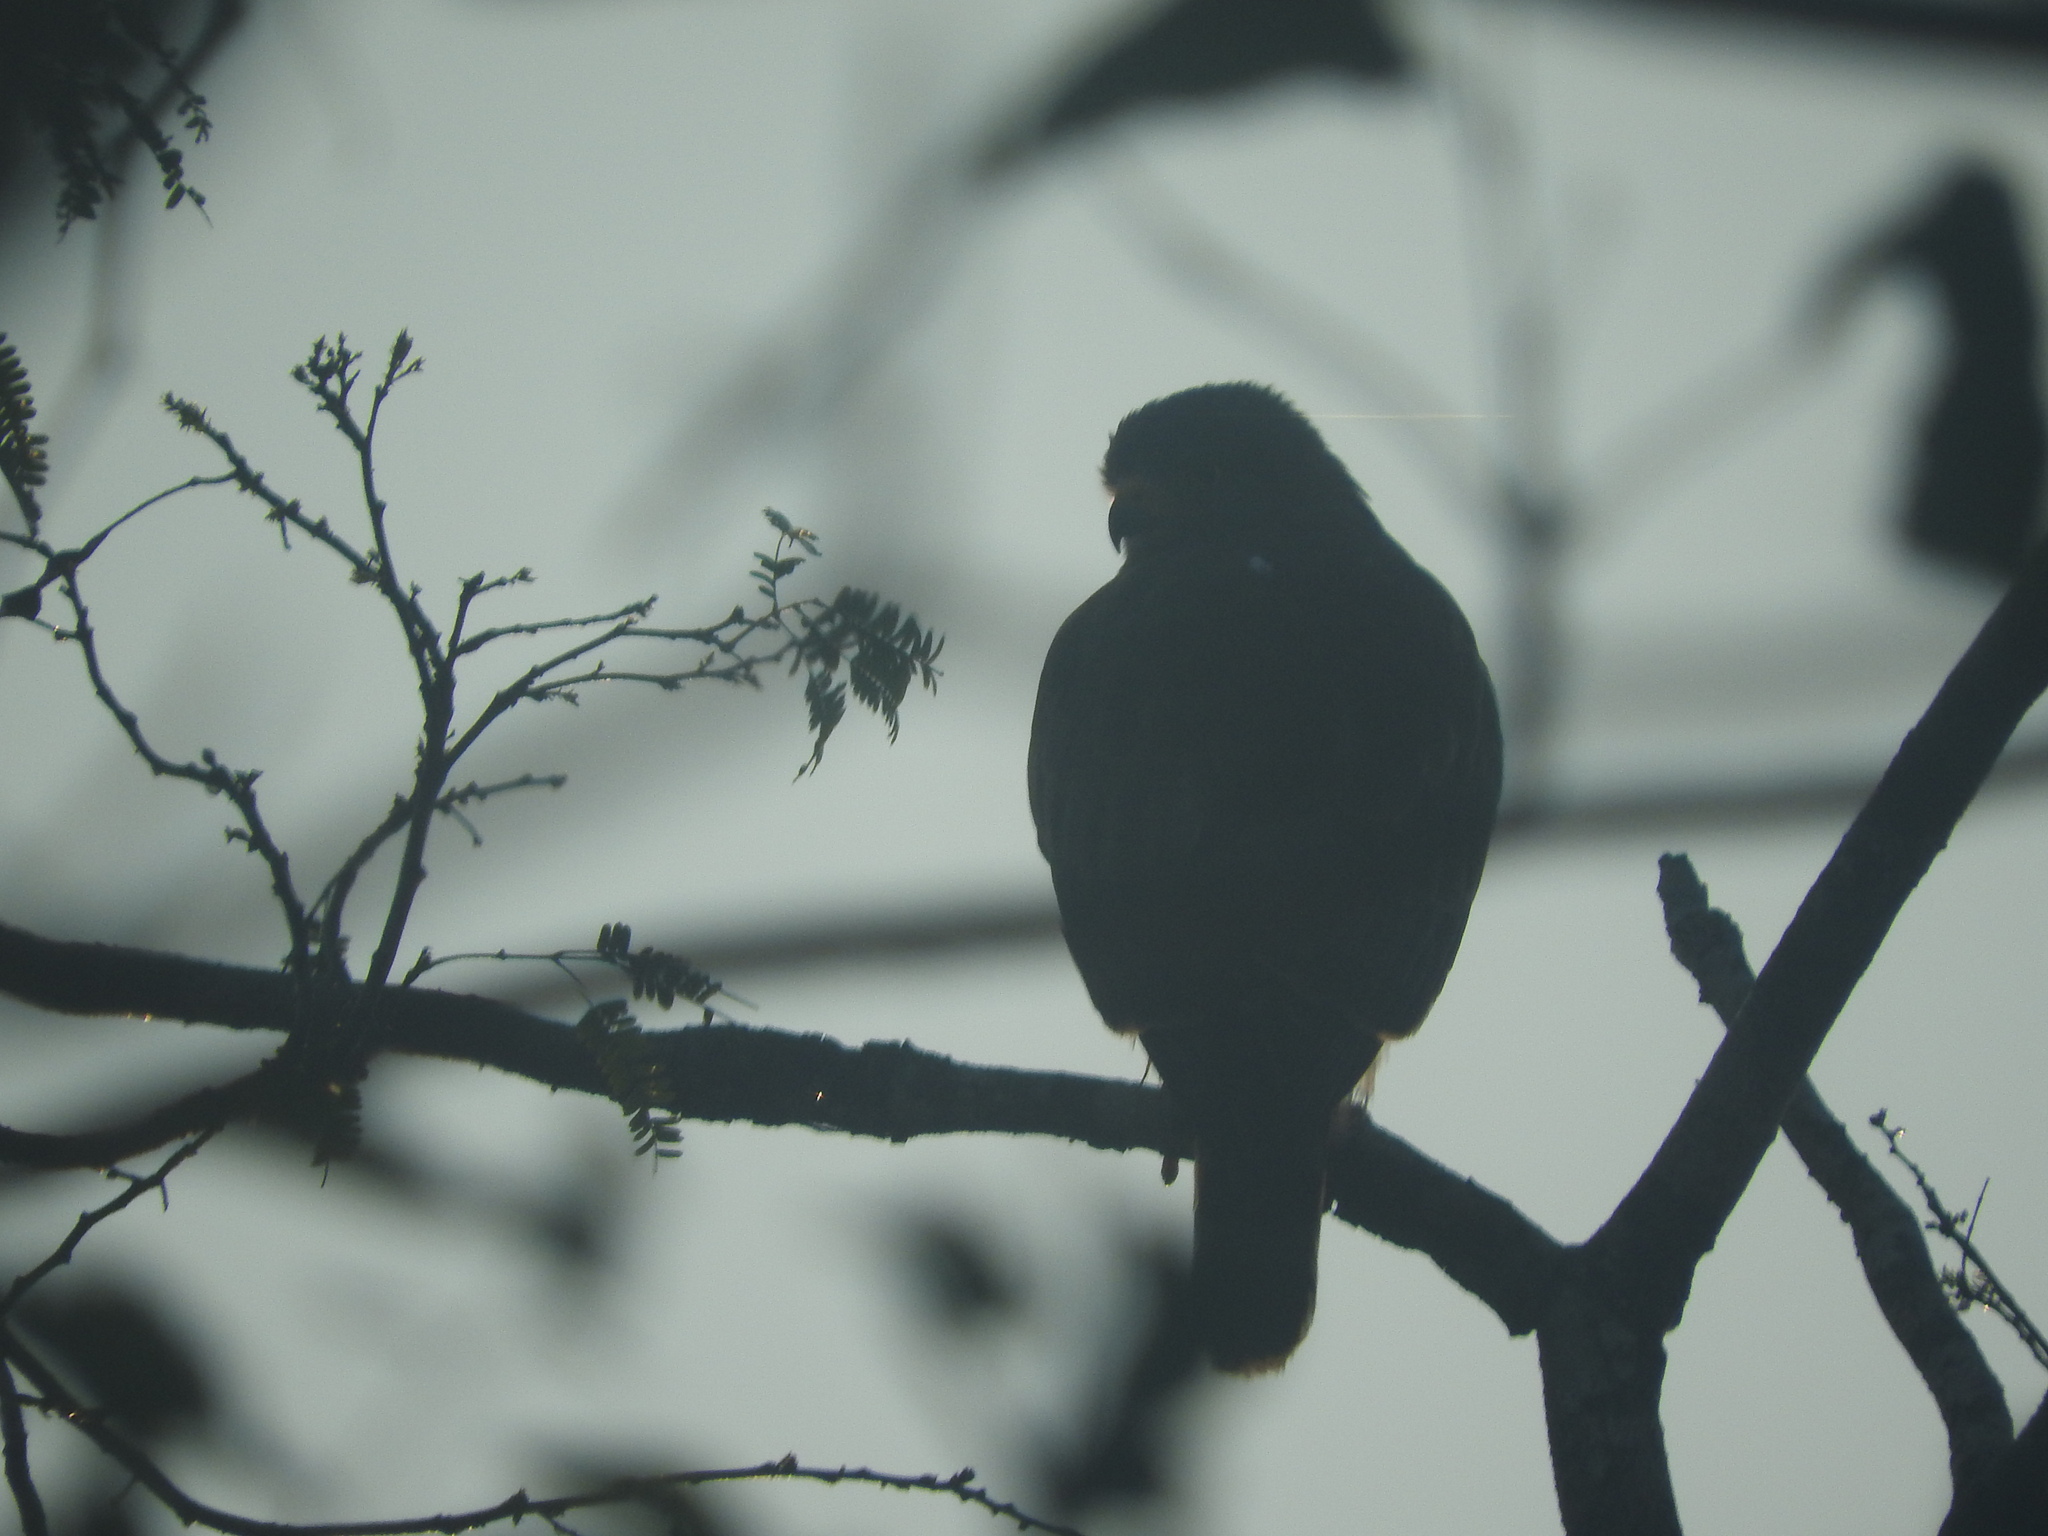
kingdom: Animalia
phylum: Chordata
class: Aves
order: Accipitriformes
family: Accipitridae
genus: Rupornis
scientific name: Rupornis magnirostris
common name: Roadside hawk
